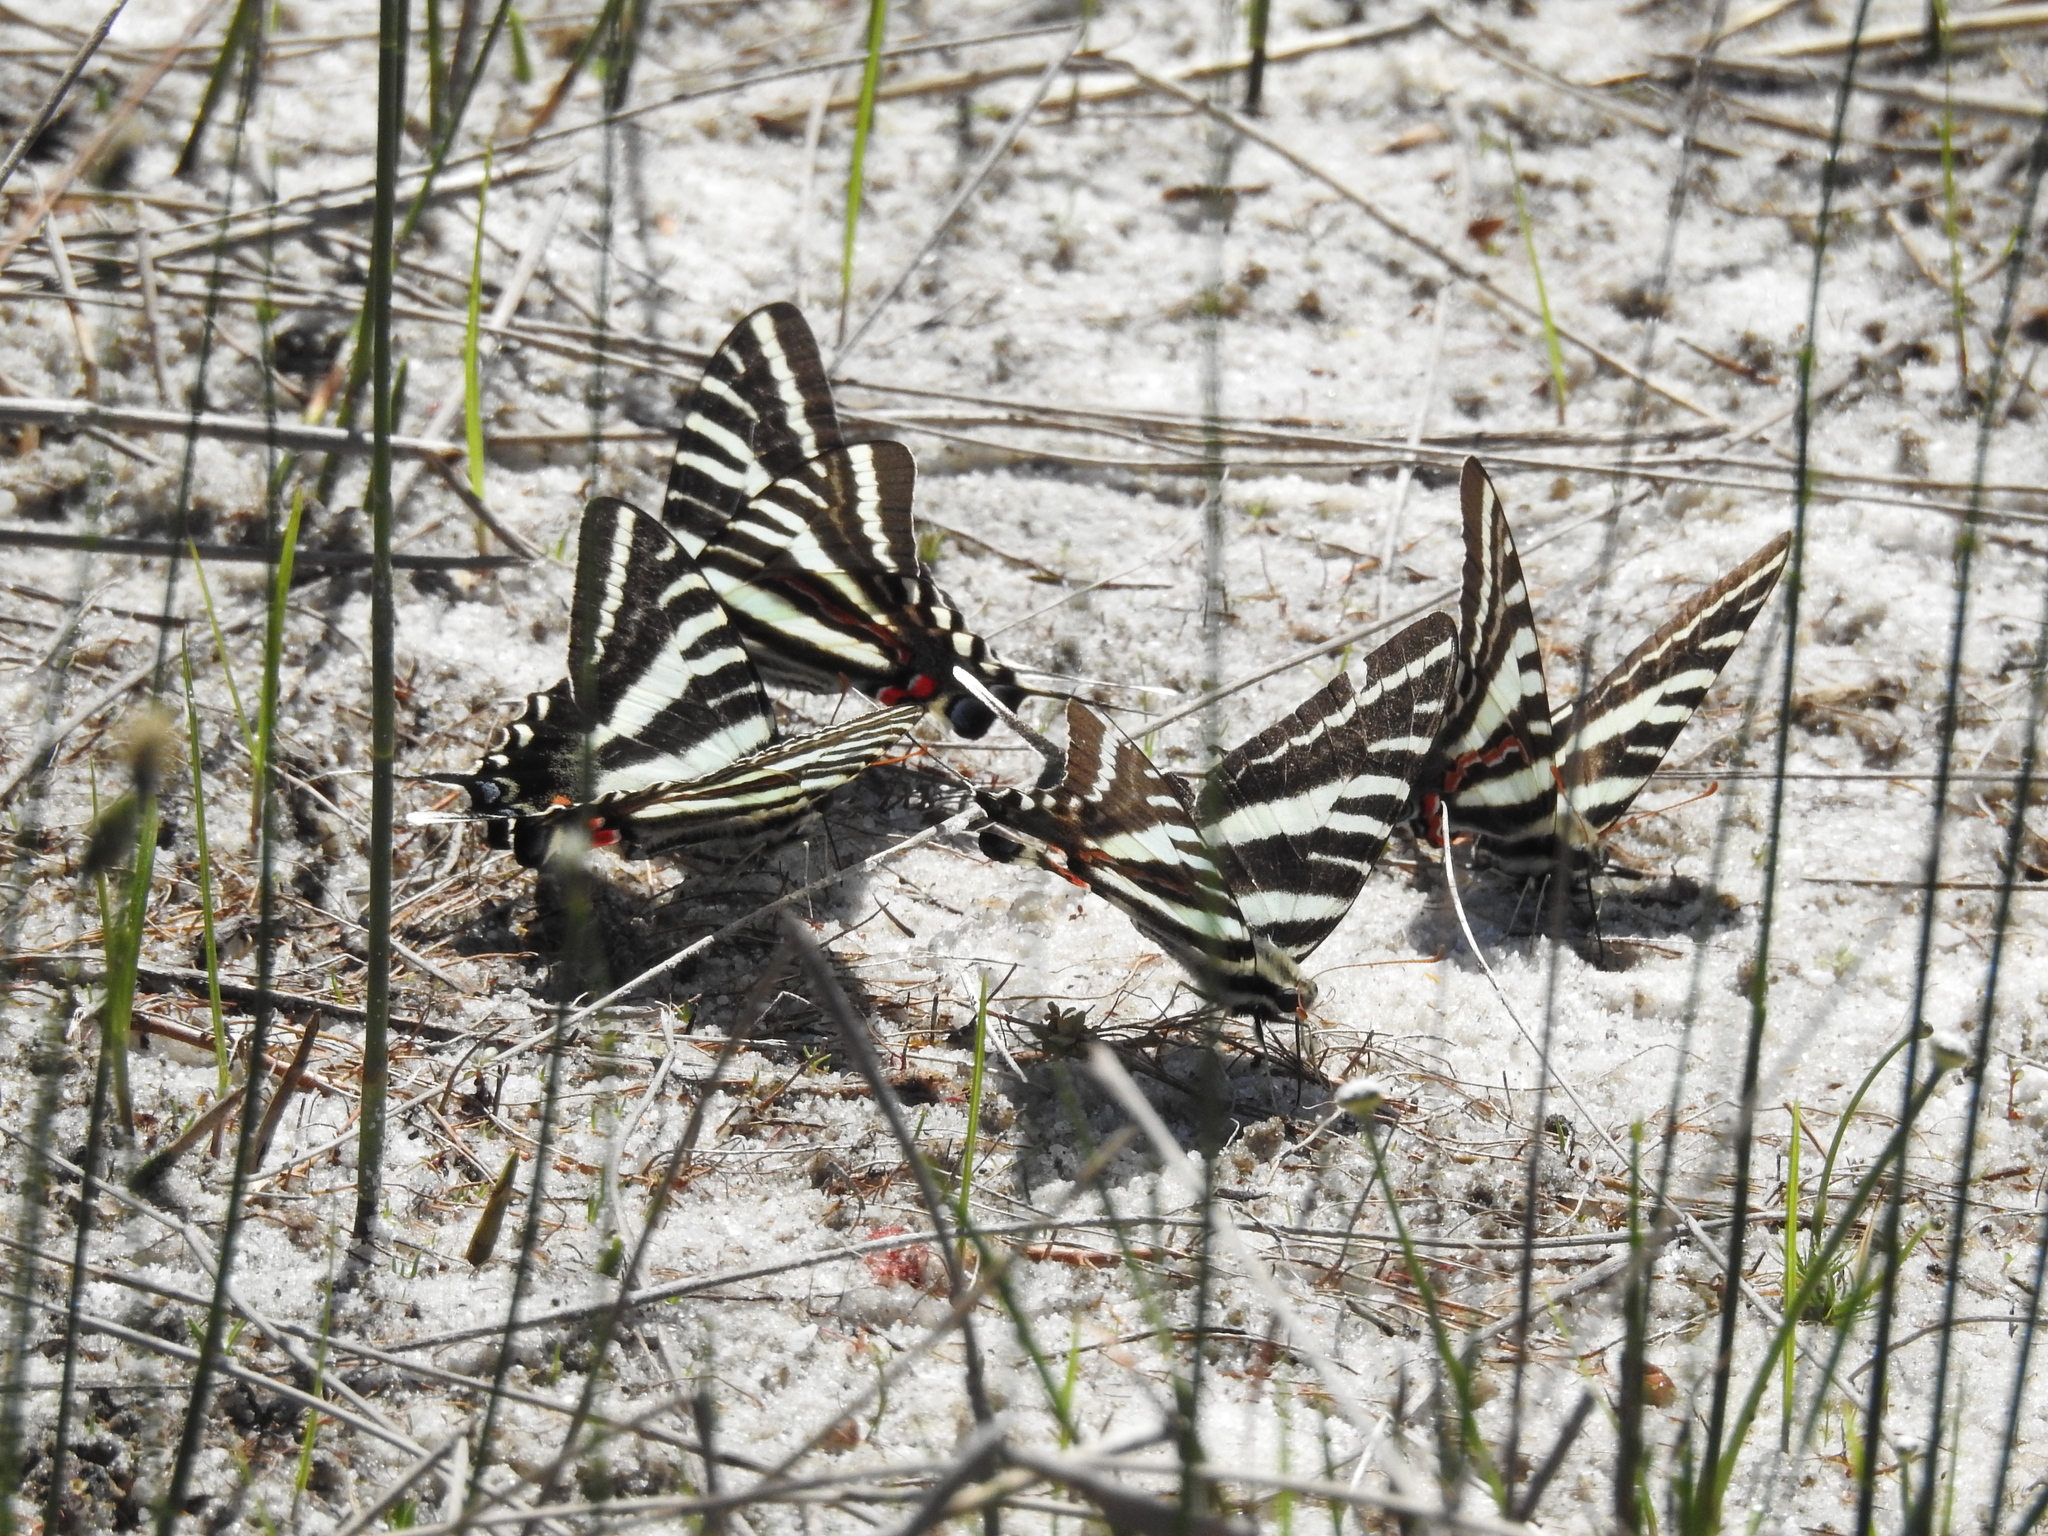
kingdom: Animalia
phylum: Arthropoda
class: Insecta
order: Lepidoptera
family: Papilionidae
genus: Protographium
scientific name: Protographium marcellus
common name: Zebra swallowtail
